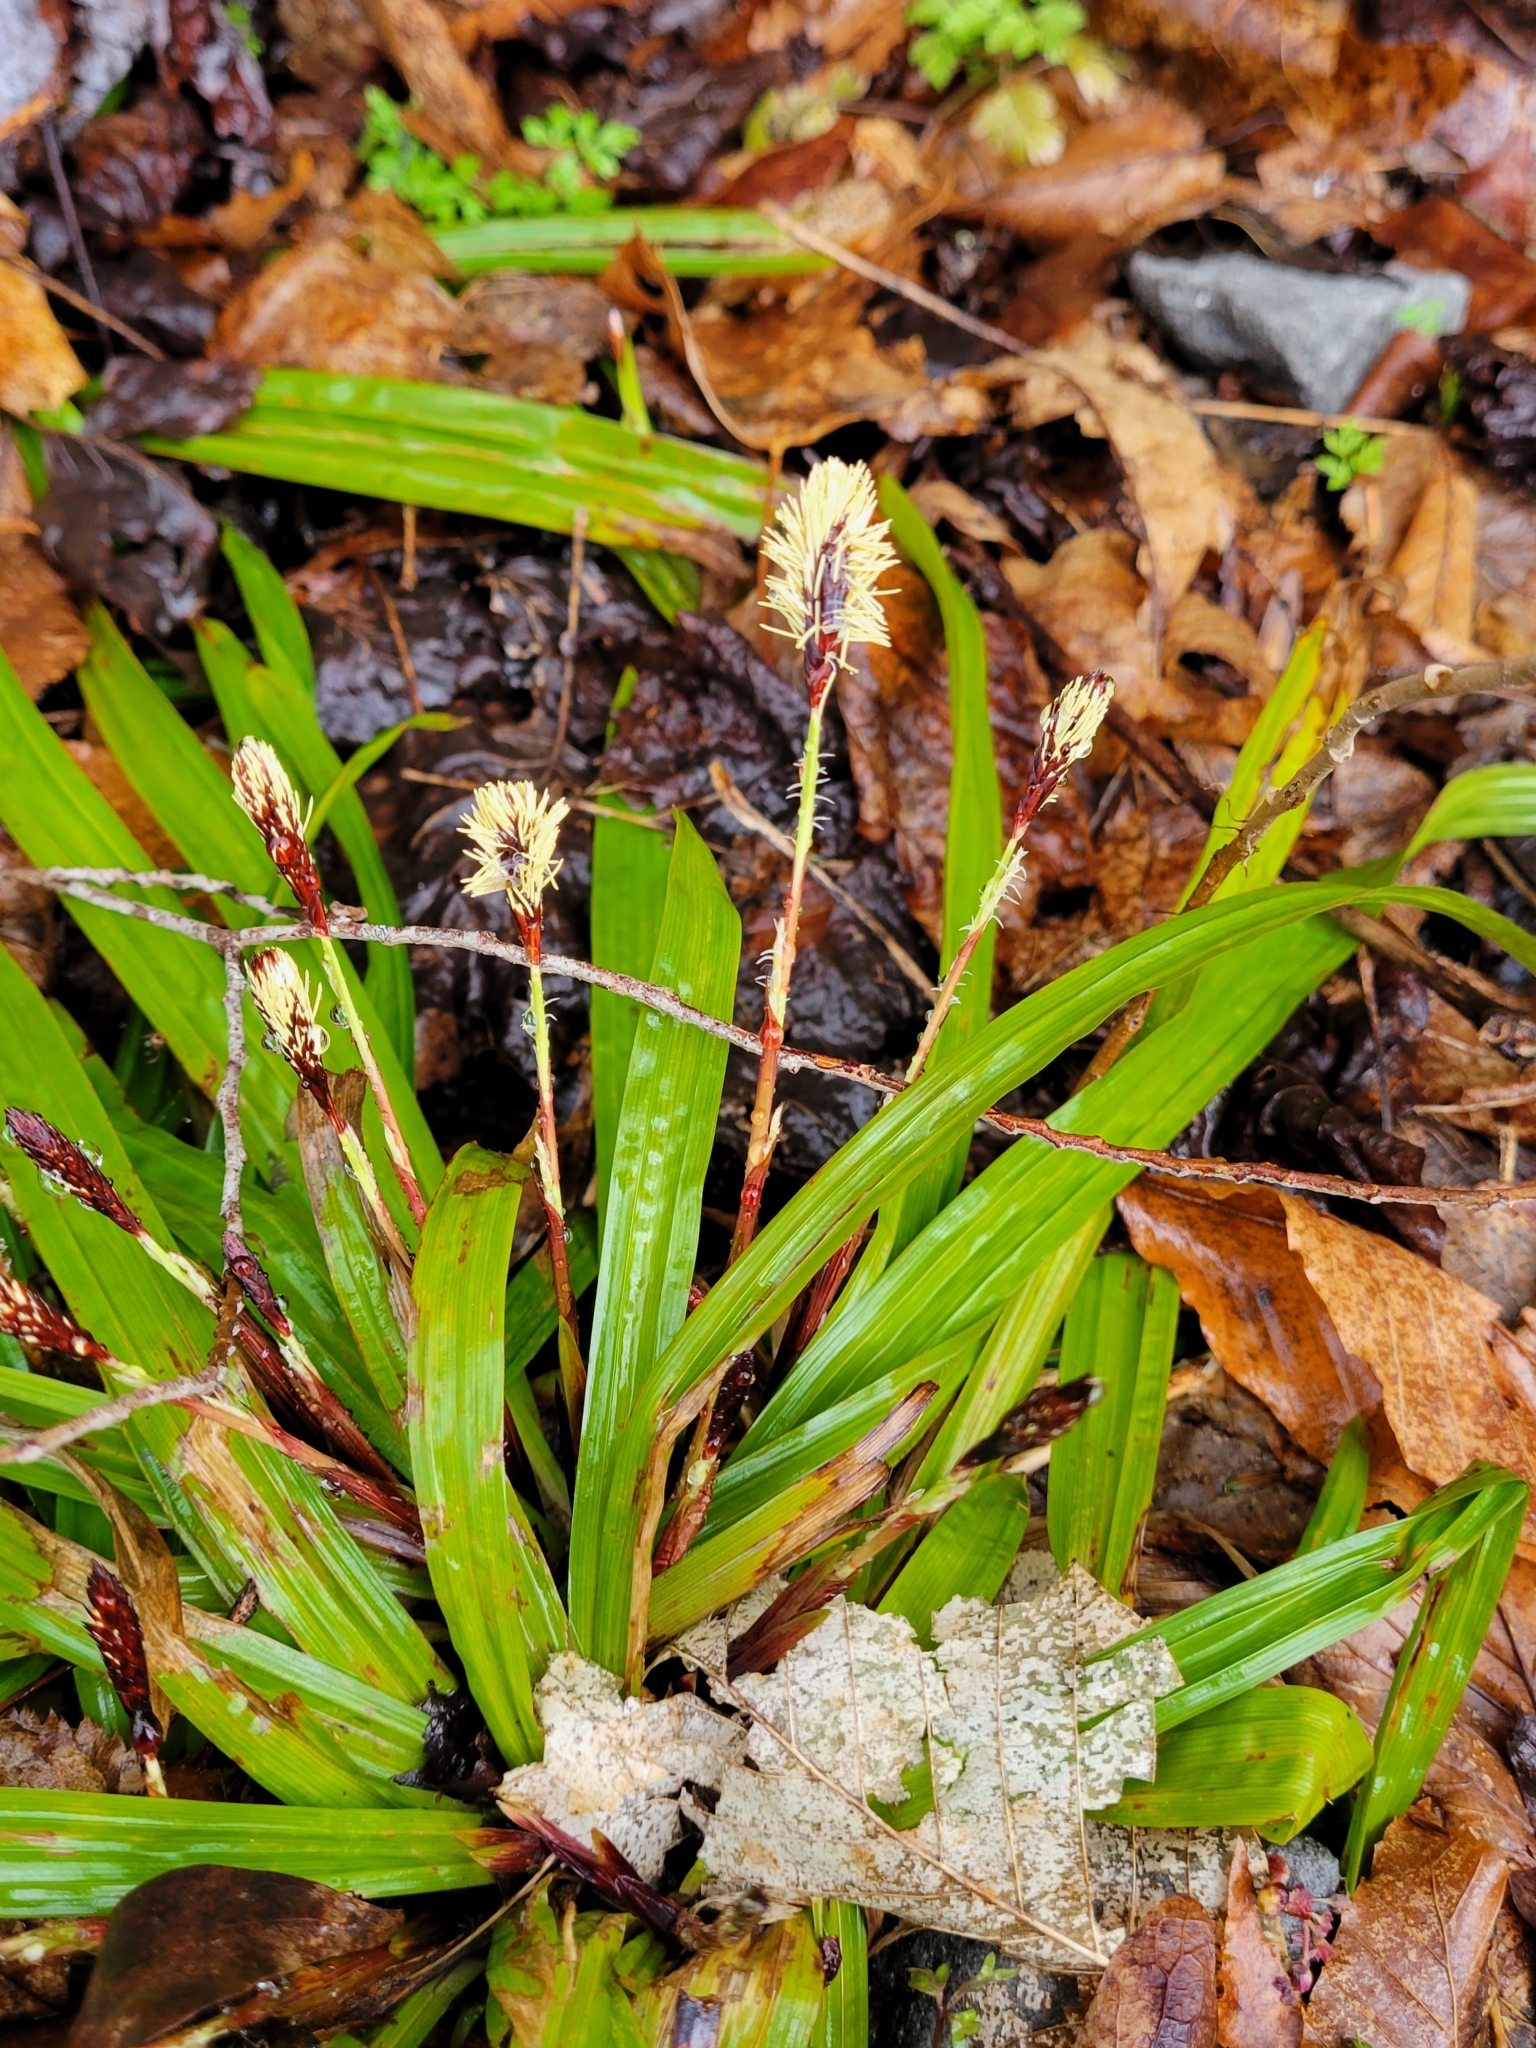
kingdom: Plantae
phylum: Tracheophyta
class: Liliopsida
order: Poales
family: Cyperaceae
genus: Carex
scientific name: Carex plantaginea
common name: Plantain-leaved sedge
